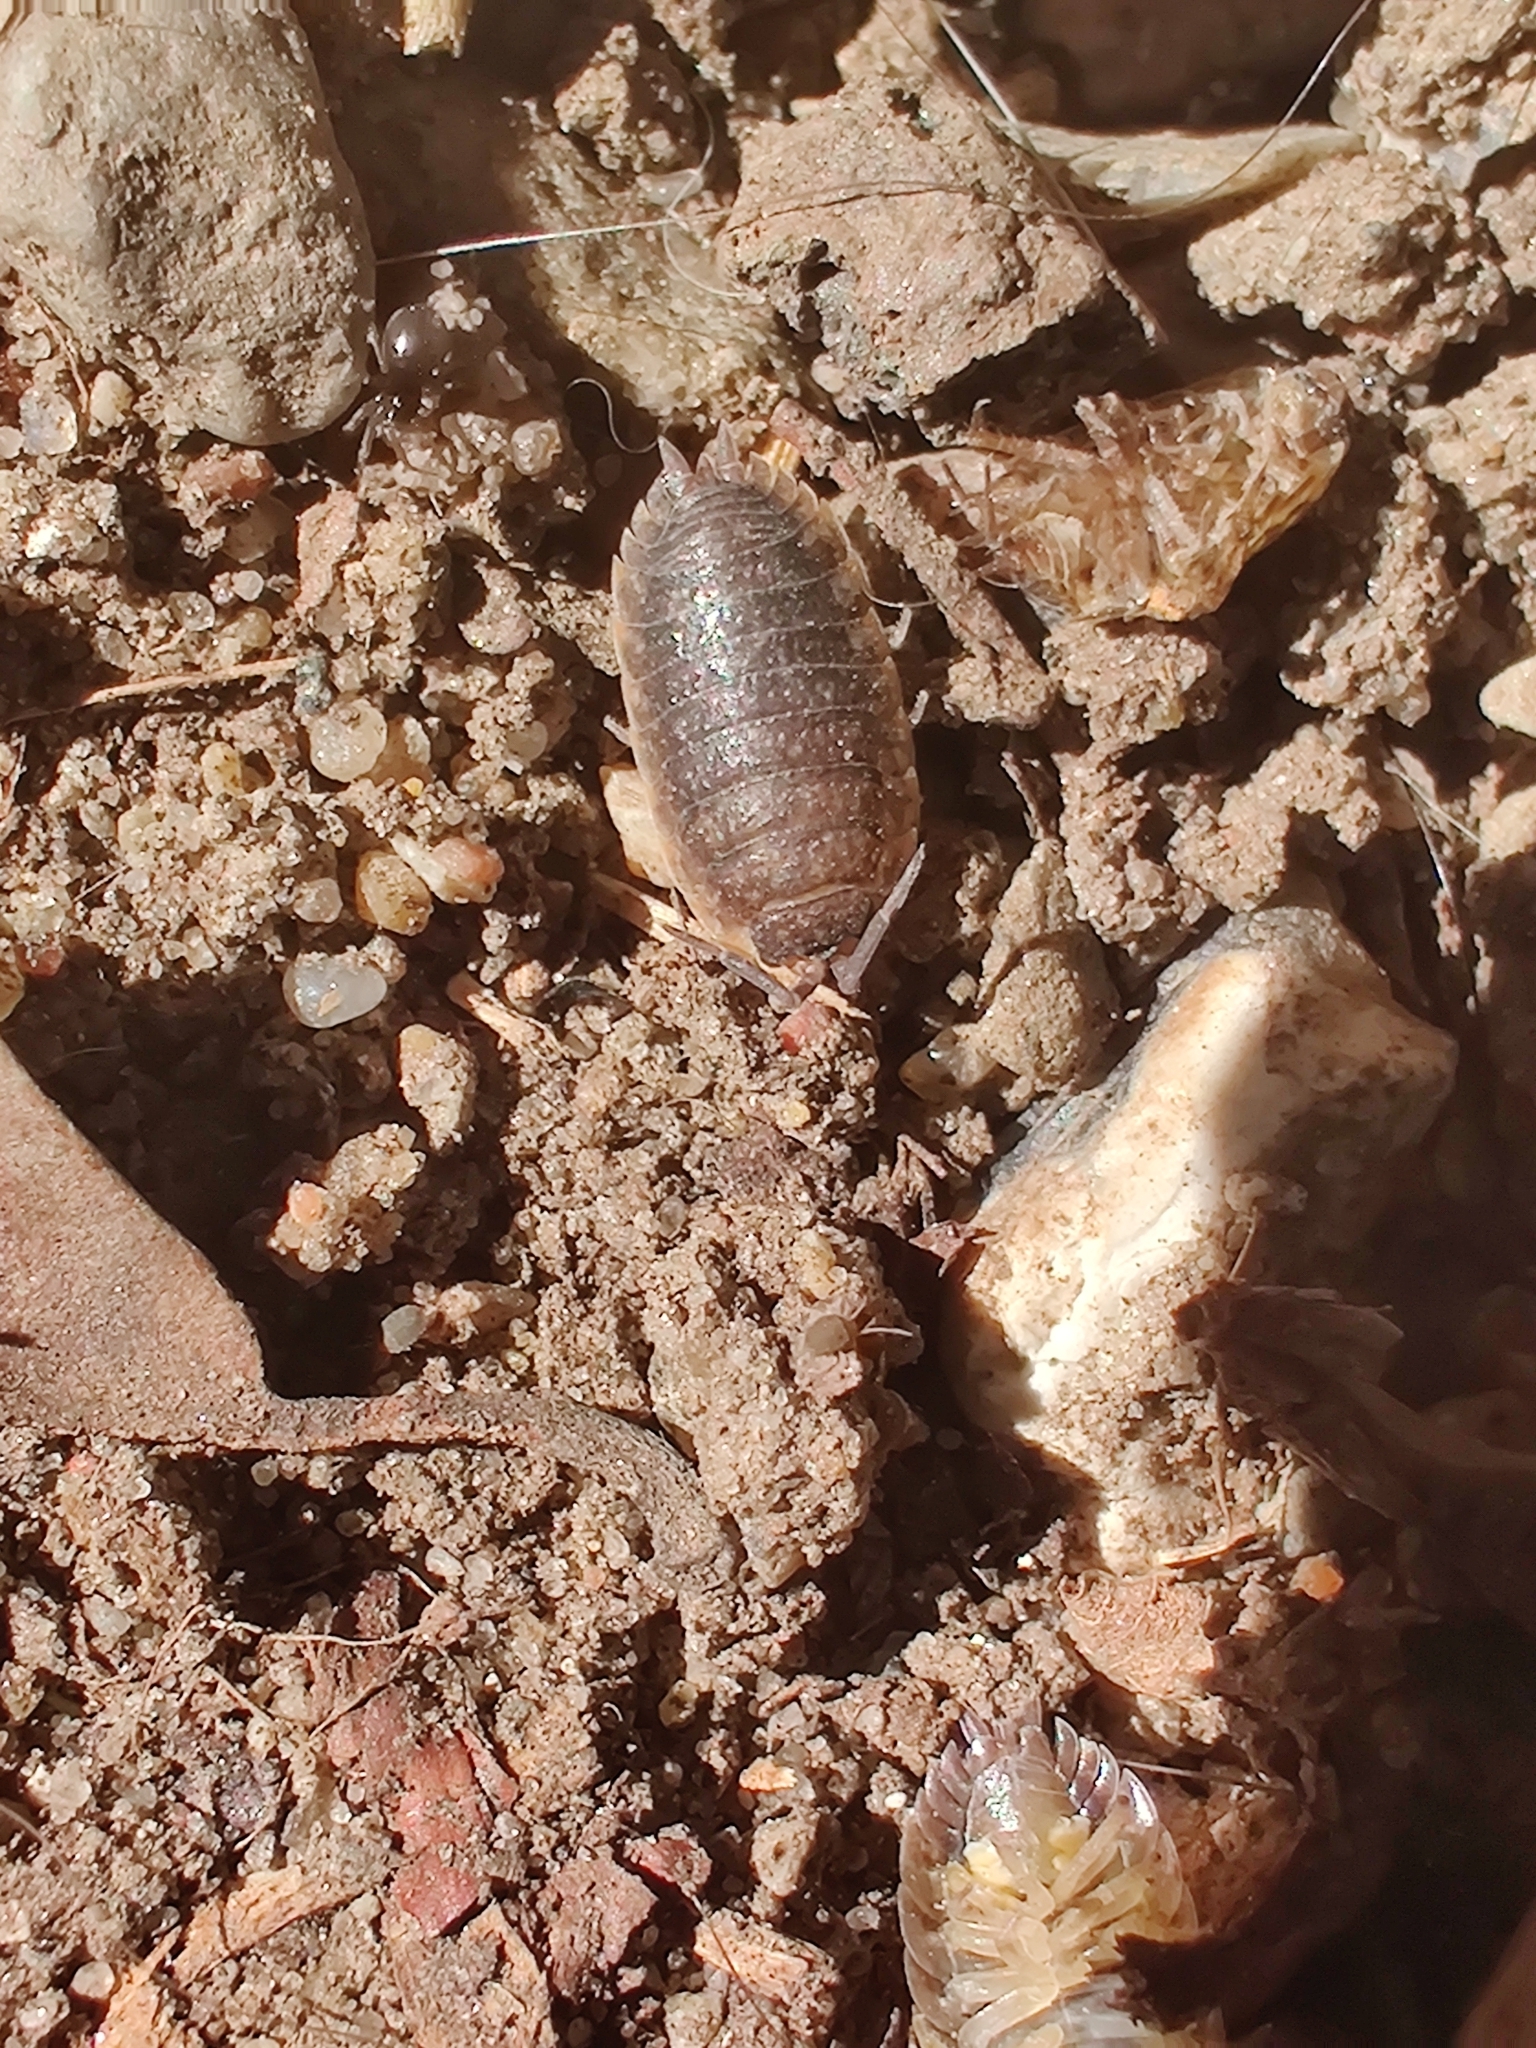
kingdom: Animalia
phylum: Arthropoda
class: Malacostraca
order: Isopoda
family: Porcellionidae
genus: Porcellio
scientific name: Porcellio scaber
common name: Common rough woodlouse
